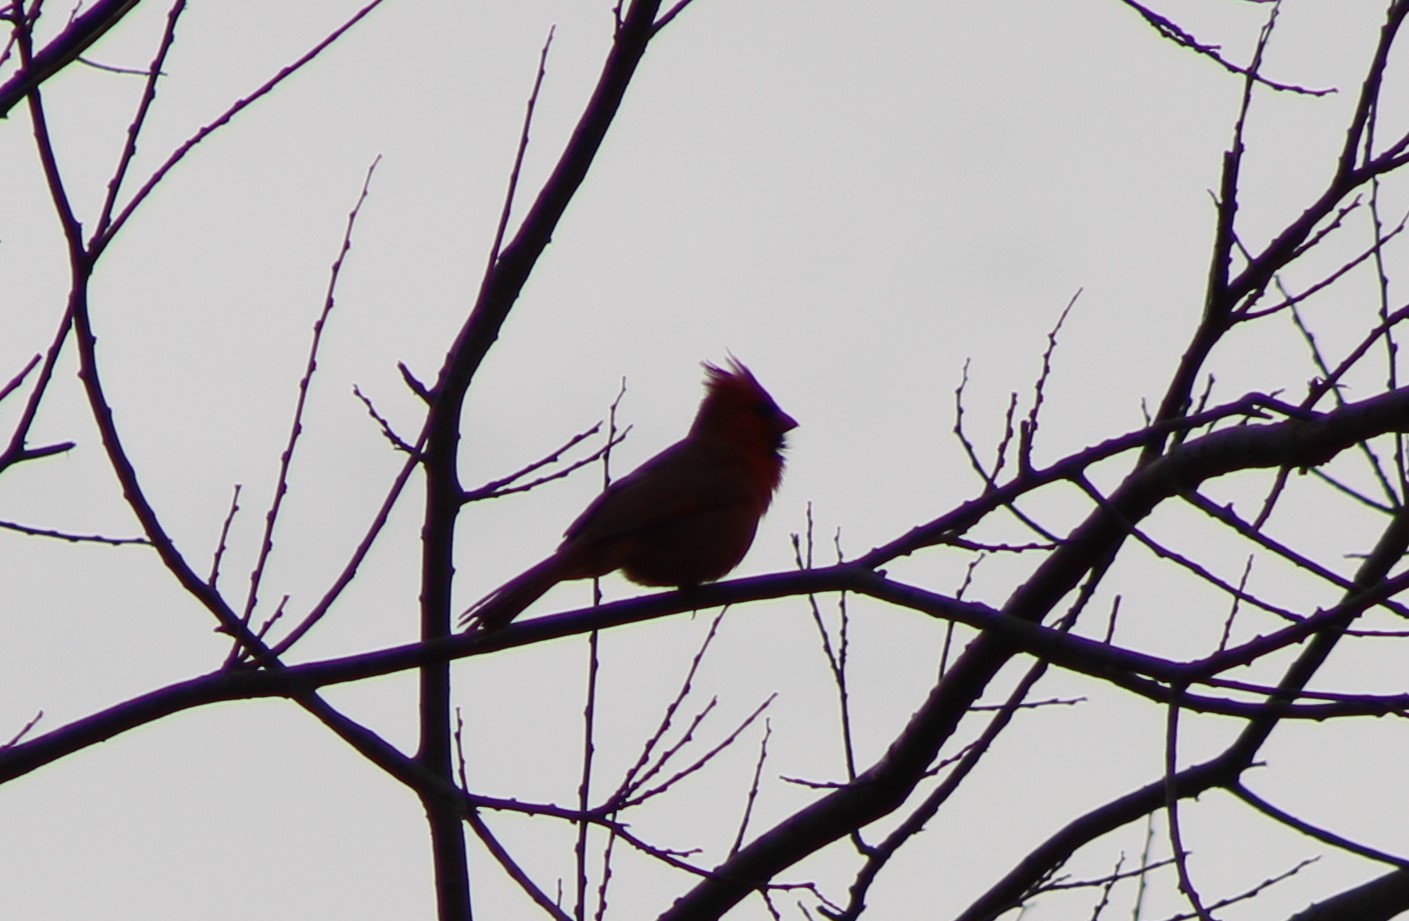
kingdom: Animalia
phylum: Chordata
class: Aves
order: Passeriformes
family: Cardinalidae
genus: Cardinalis
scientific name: Cardinalis cardinalis
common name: Northern cardinal
